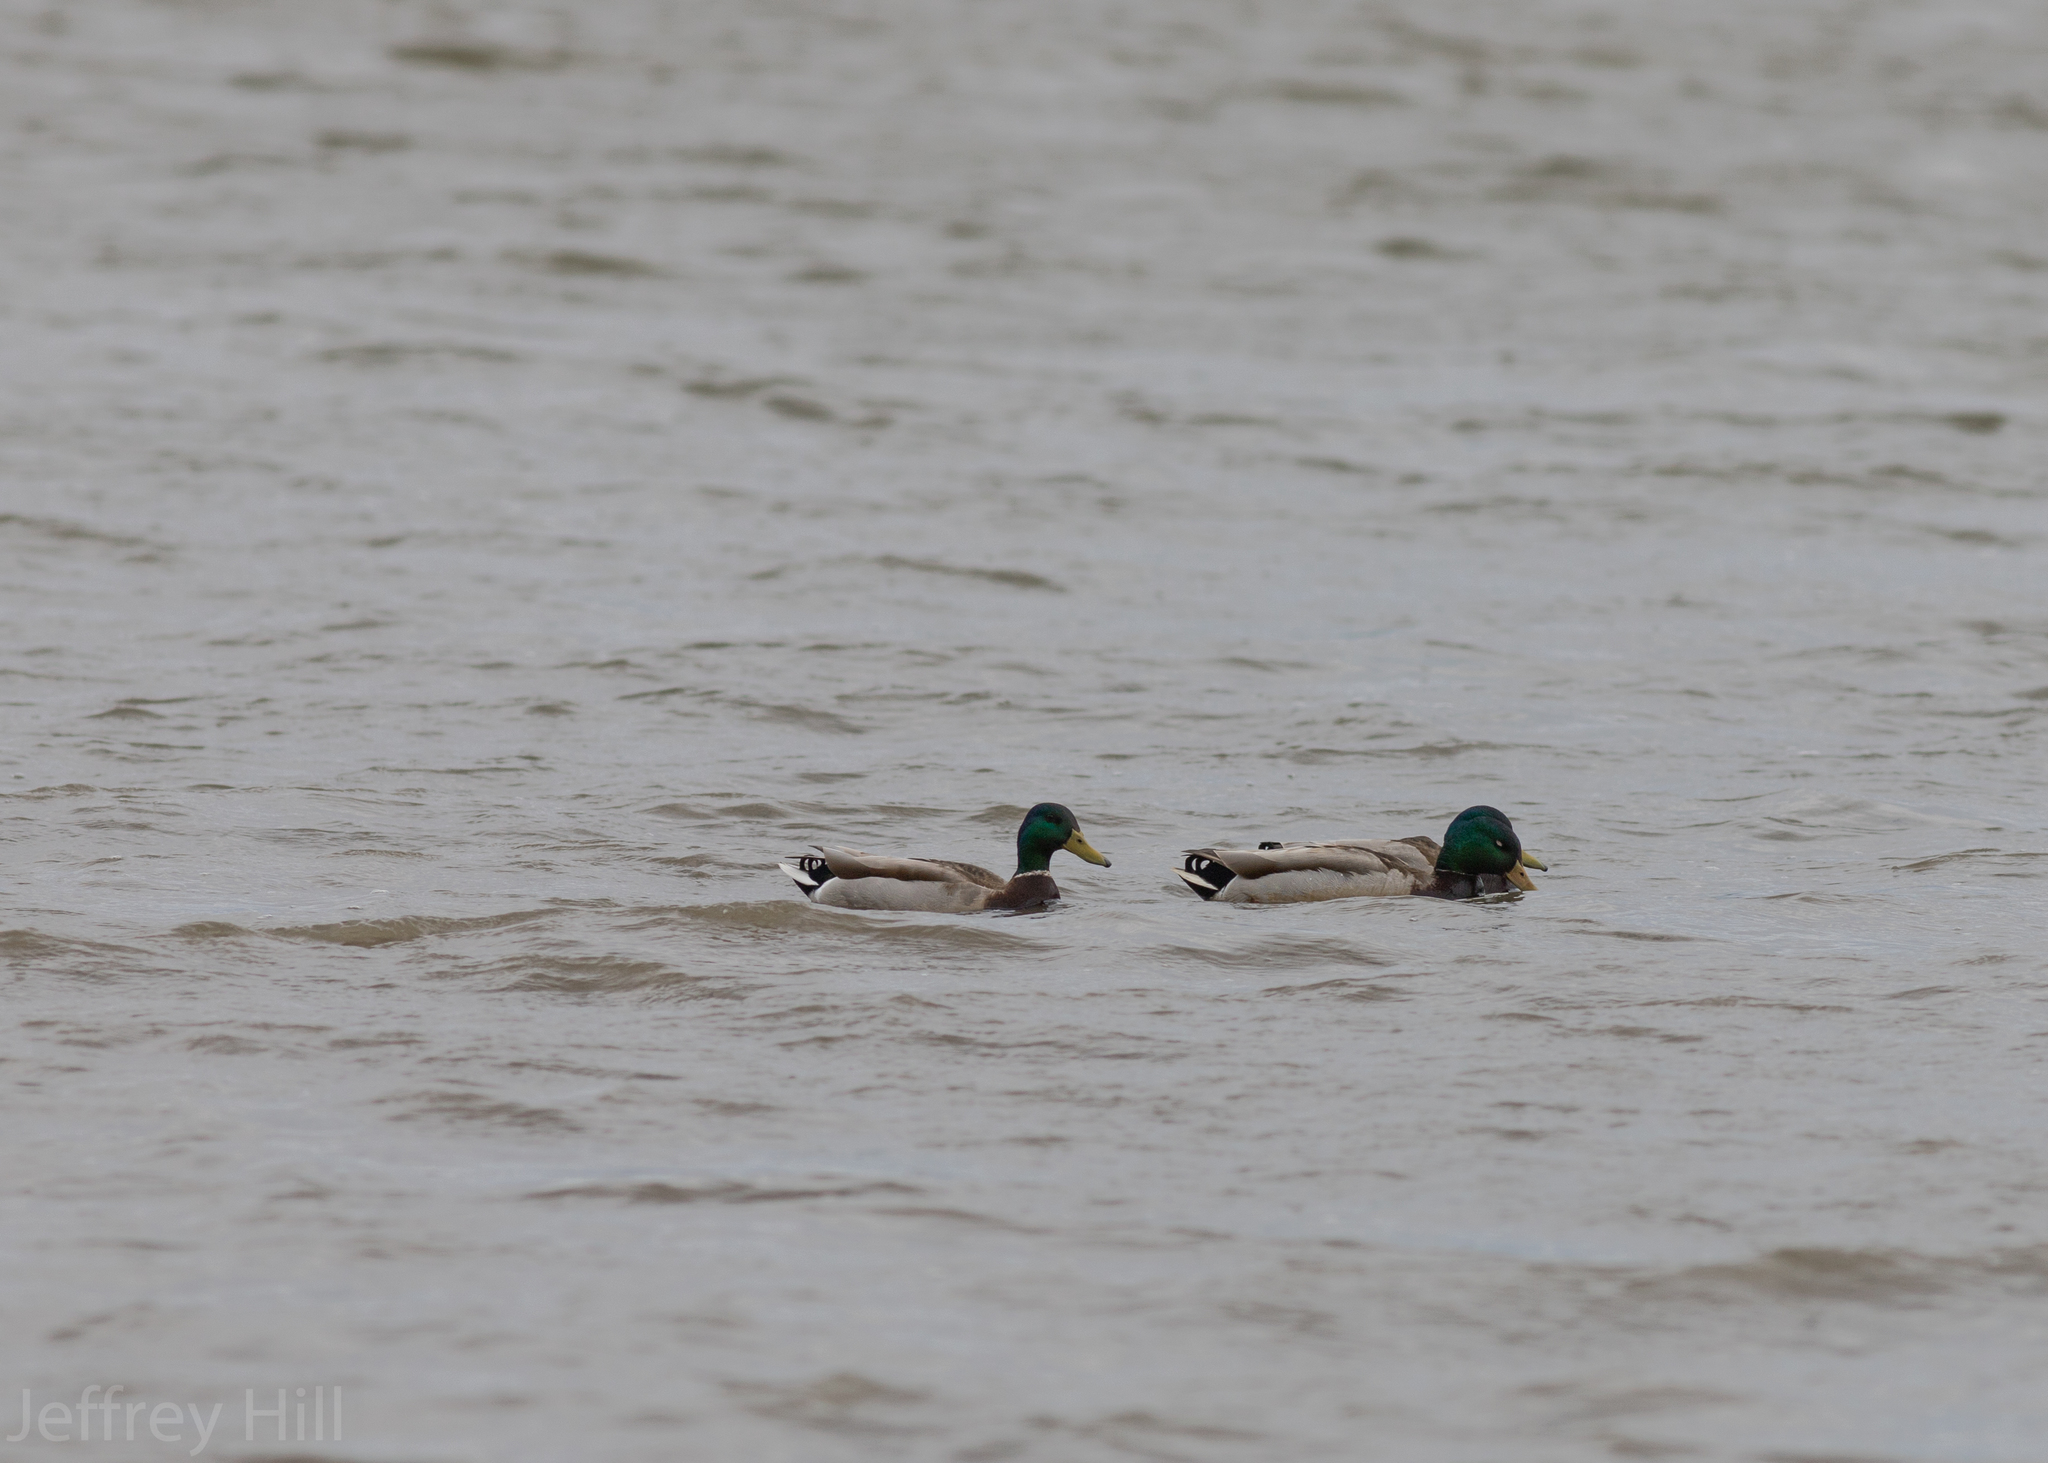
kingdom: Animalia
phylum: Chordata
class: Aves
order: Anseriformes
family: Anatidae
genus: Anas
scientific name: Anas platyrhynchos
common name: Mallard
